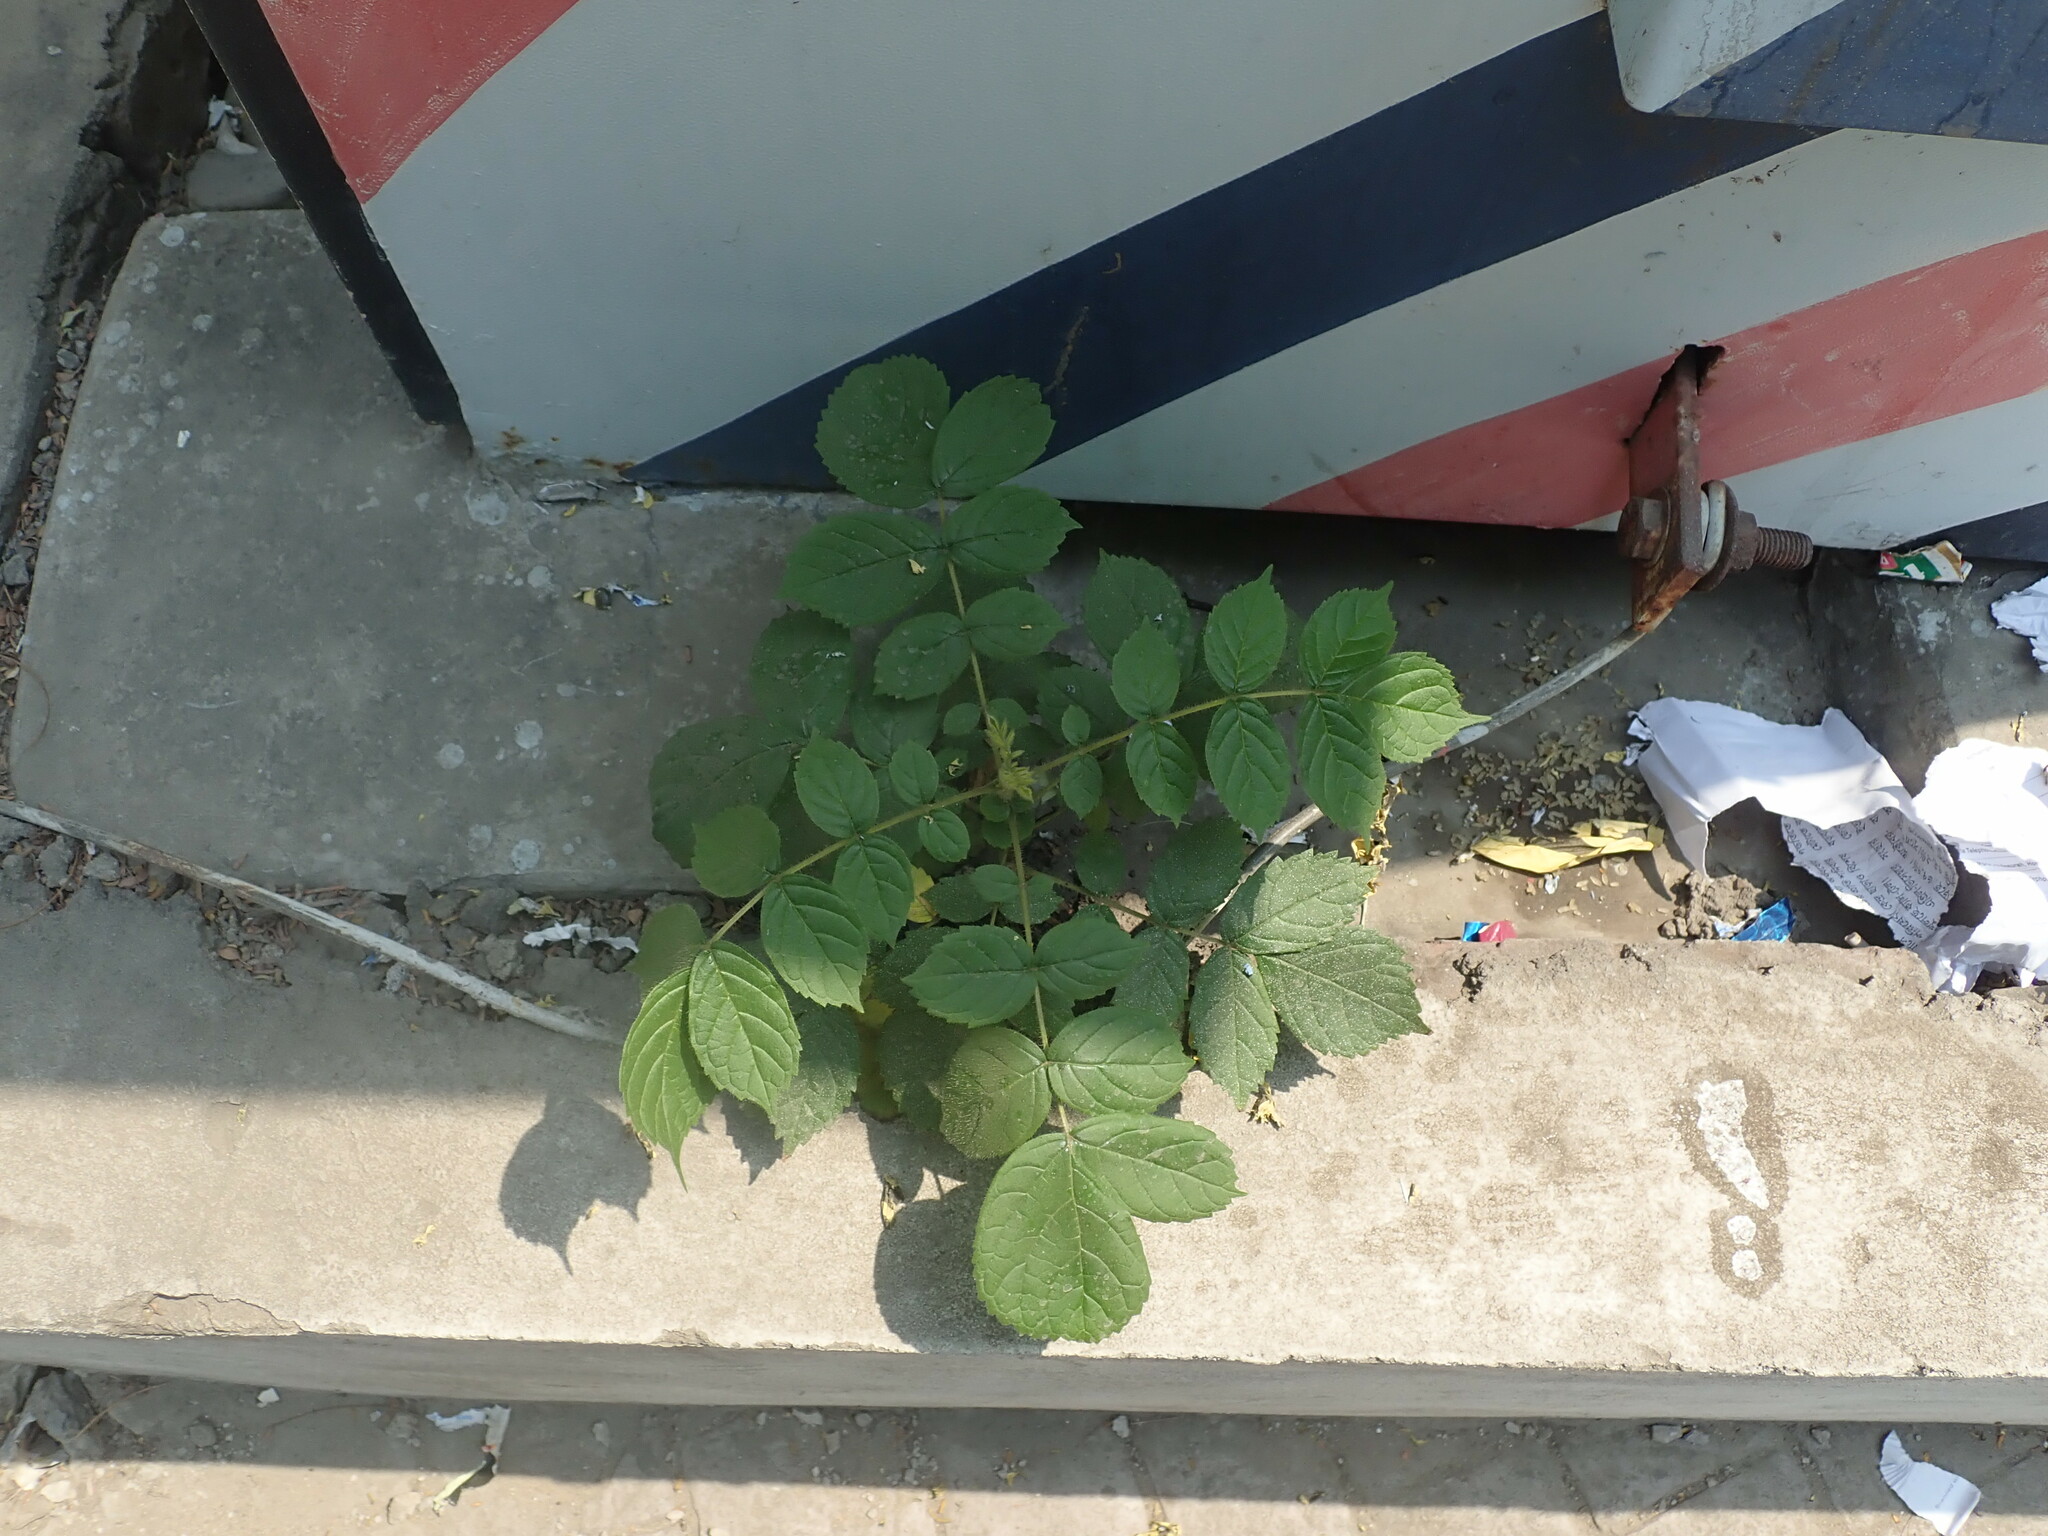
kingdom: Plantae
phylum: Tracheophyta
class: Magnoliopsida
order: Lamiales
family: Bignoniaceae
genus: Spathodea
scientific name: Spathodea campanulata
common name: African tuliptree
